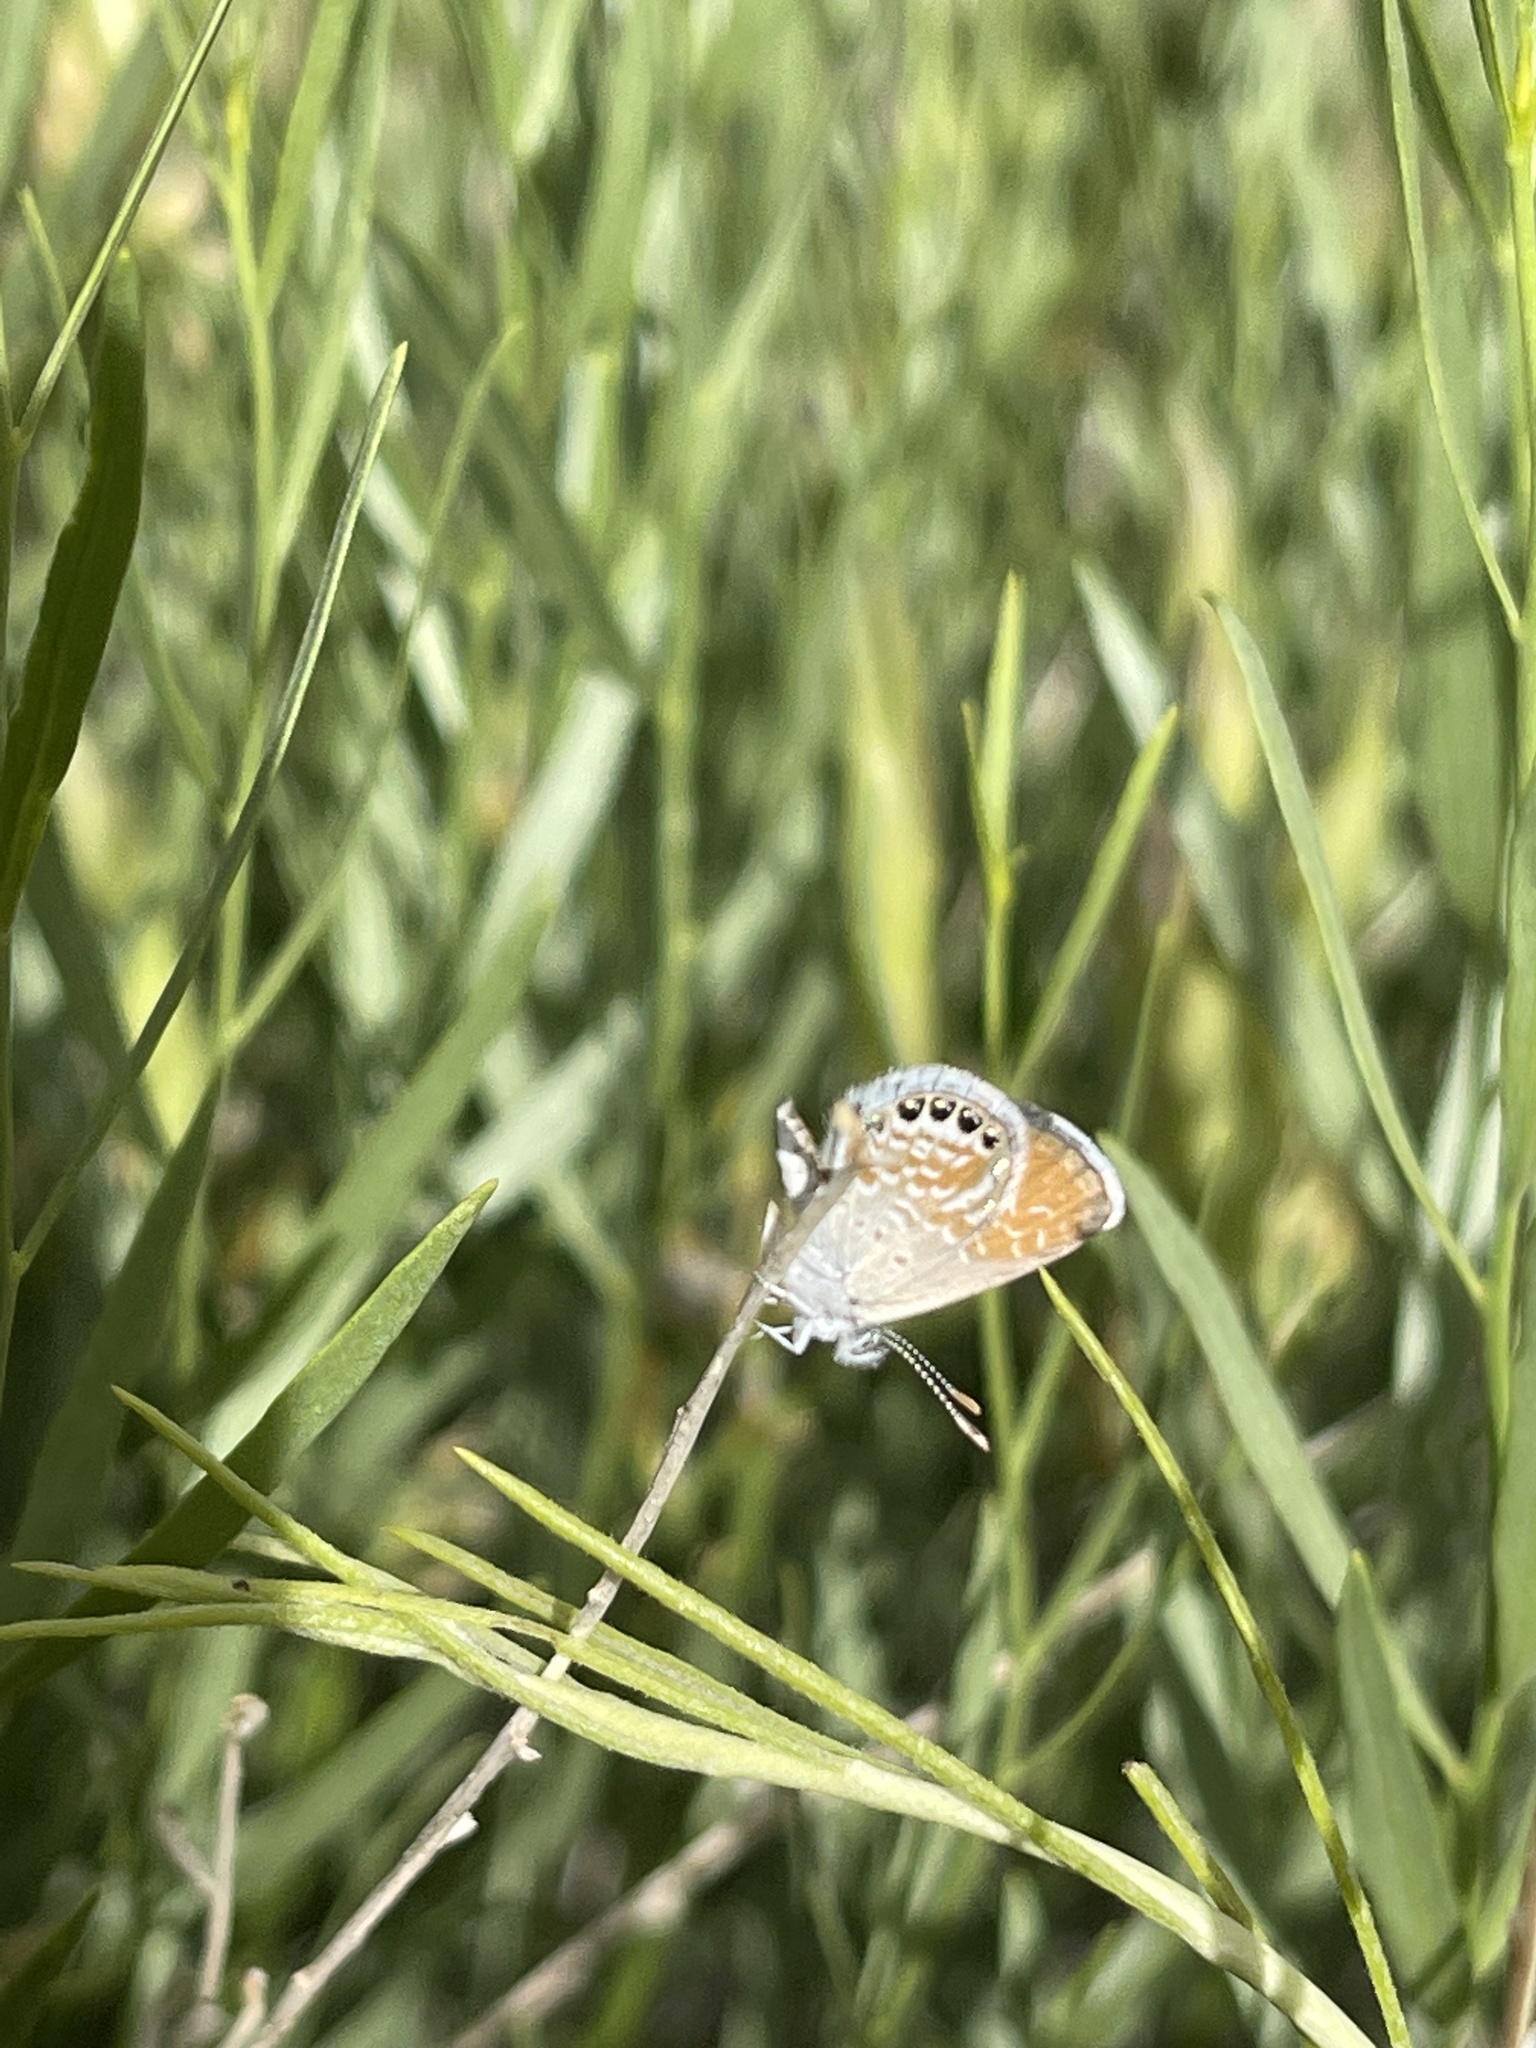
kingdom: Animalia
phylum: Arthropoda
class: Insecta
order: Lepidoptera
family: Lycaenidae
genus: Brephidium
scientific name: Brephidium exilis
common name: Pygmy blue
